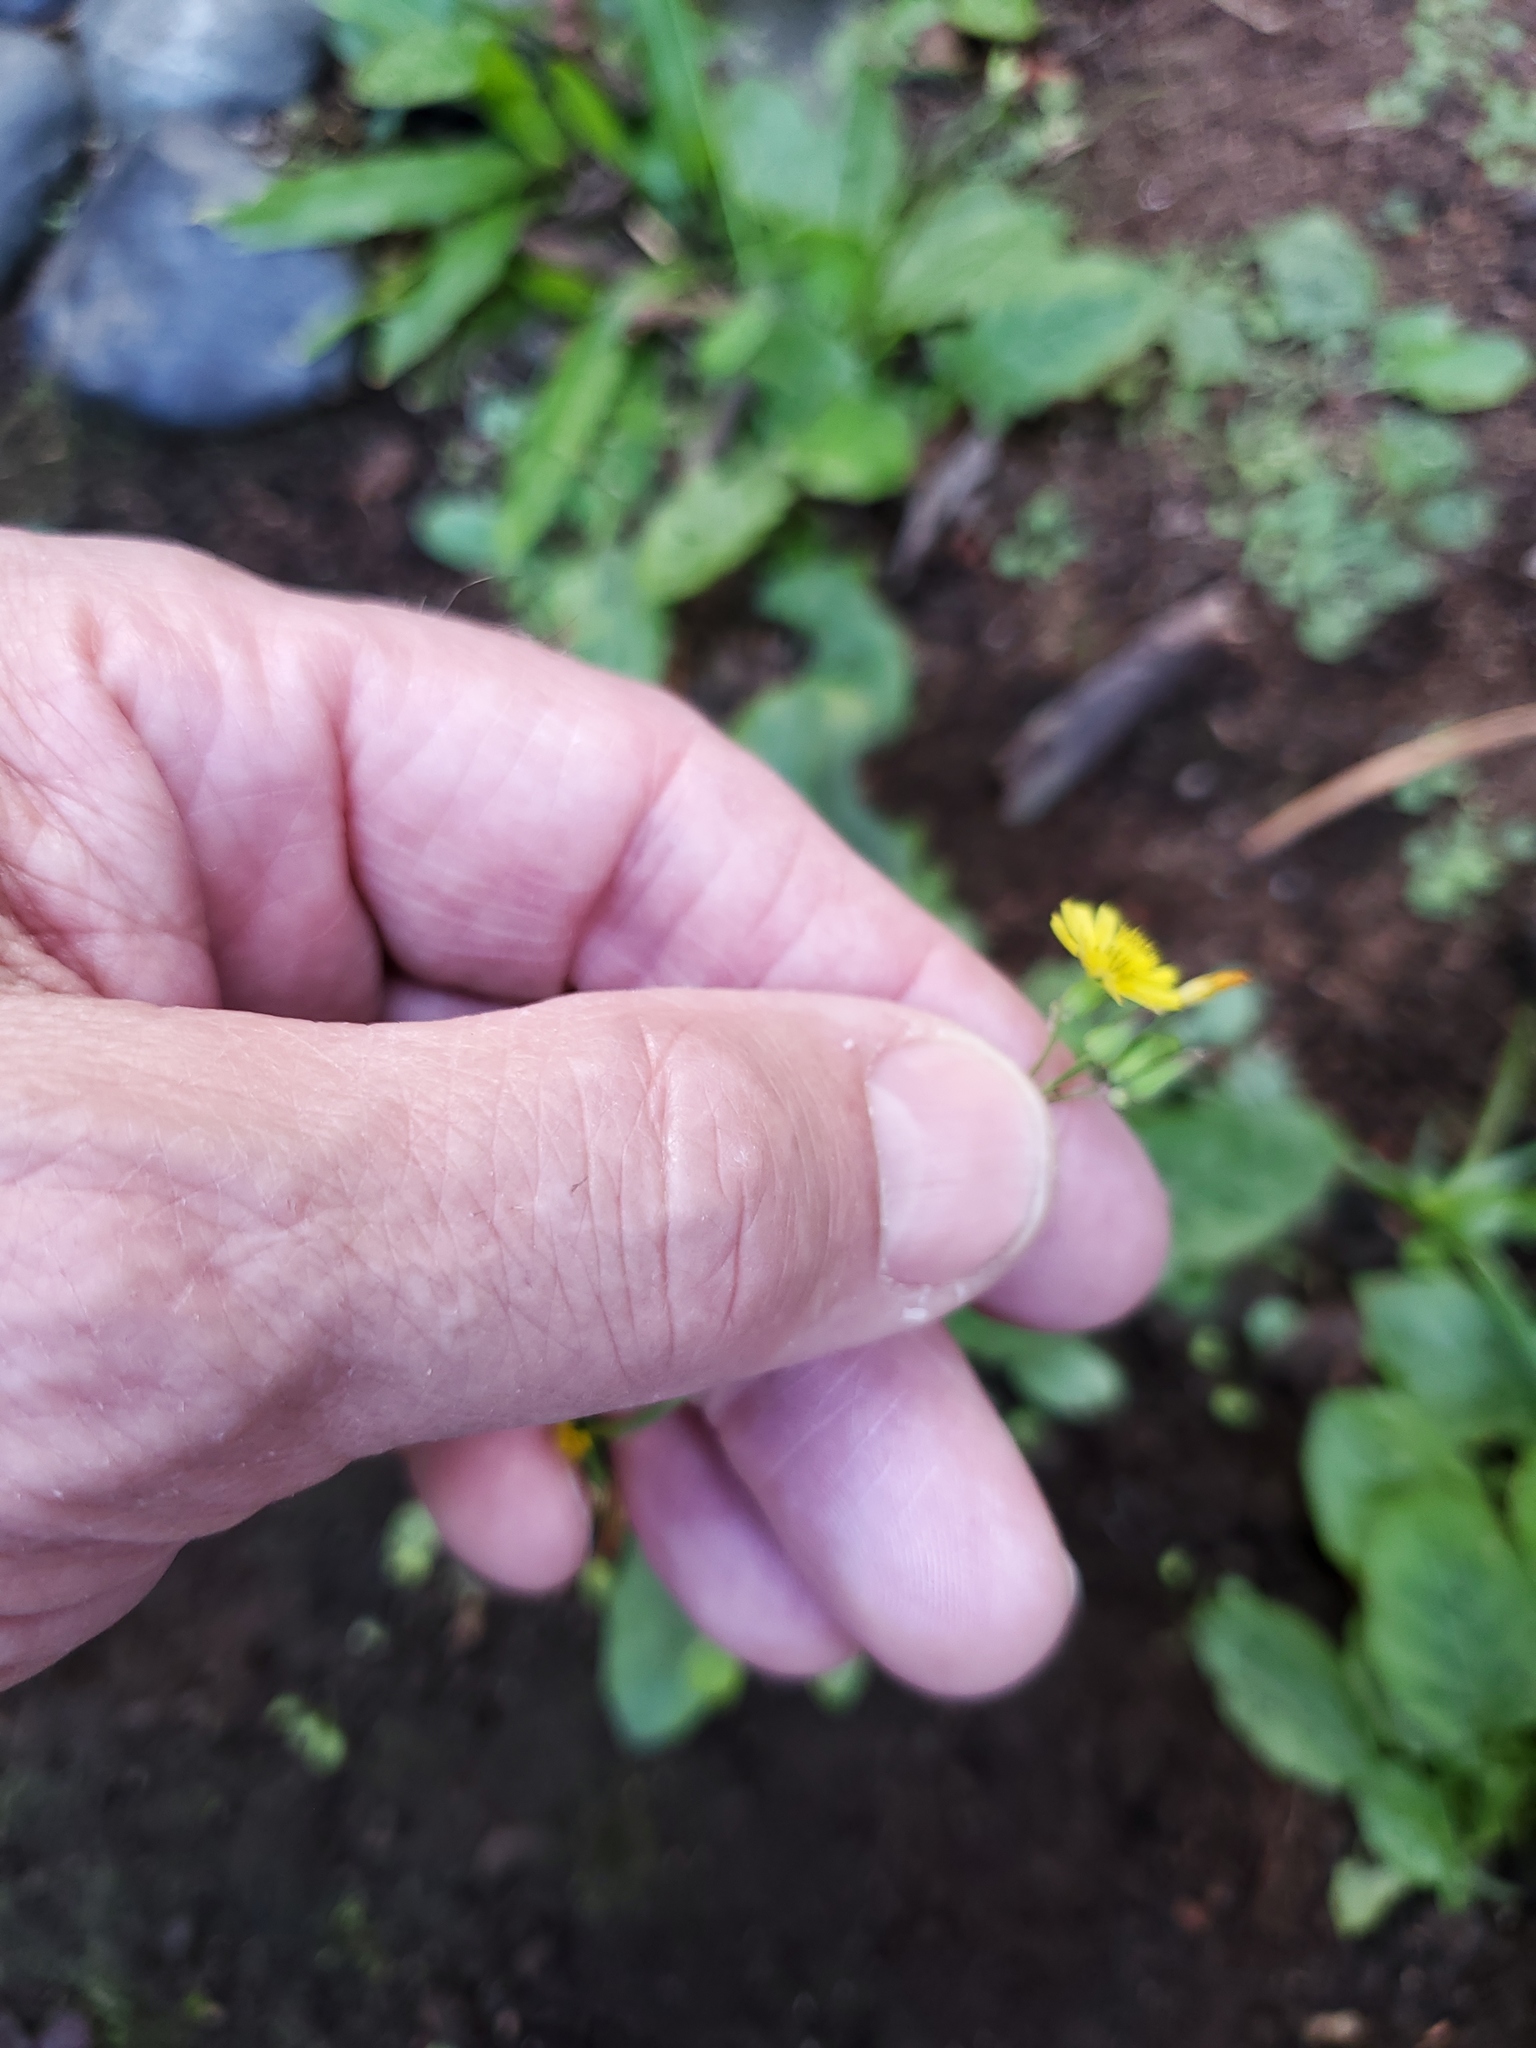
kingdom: Plantae
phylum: Tracheophyta
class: Magnoliopsida
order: Asterales
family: Asteraceae
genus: Youngia
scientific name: Youngia japonica
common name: Oriental false hawksbeard
